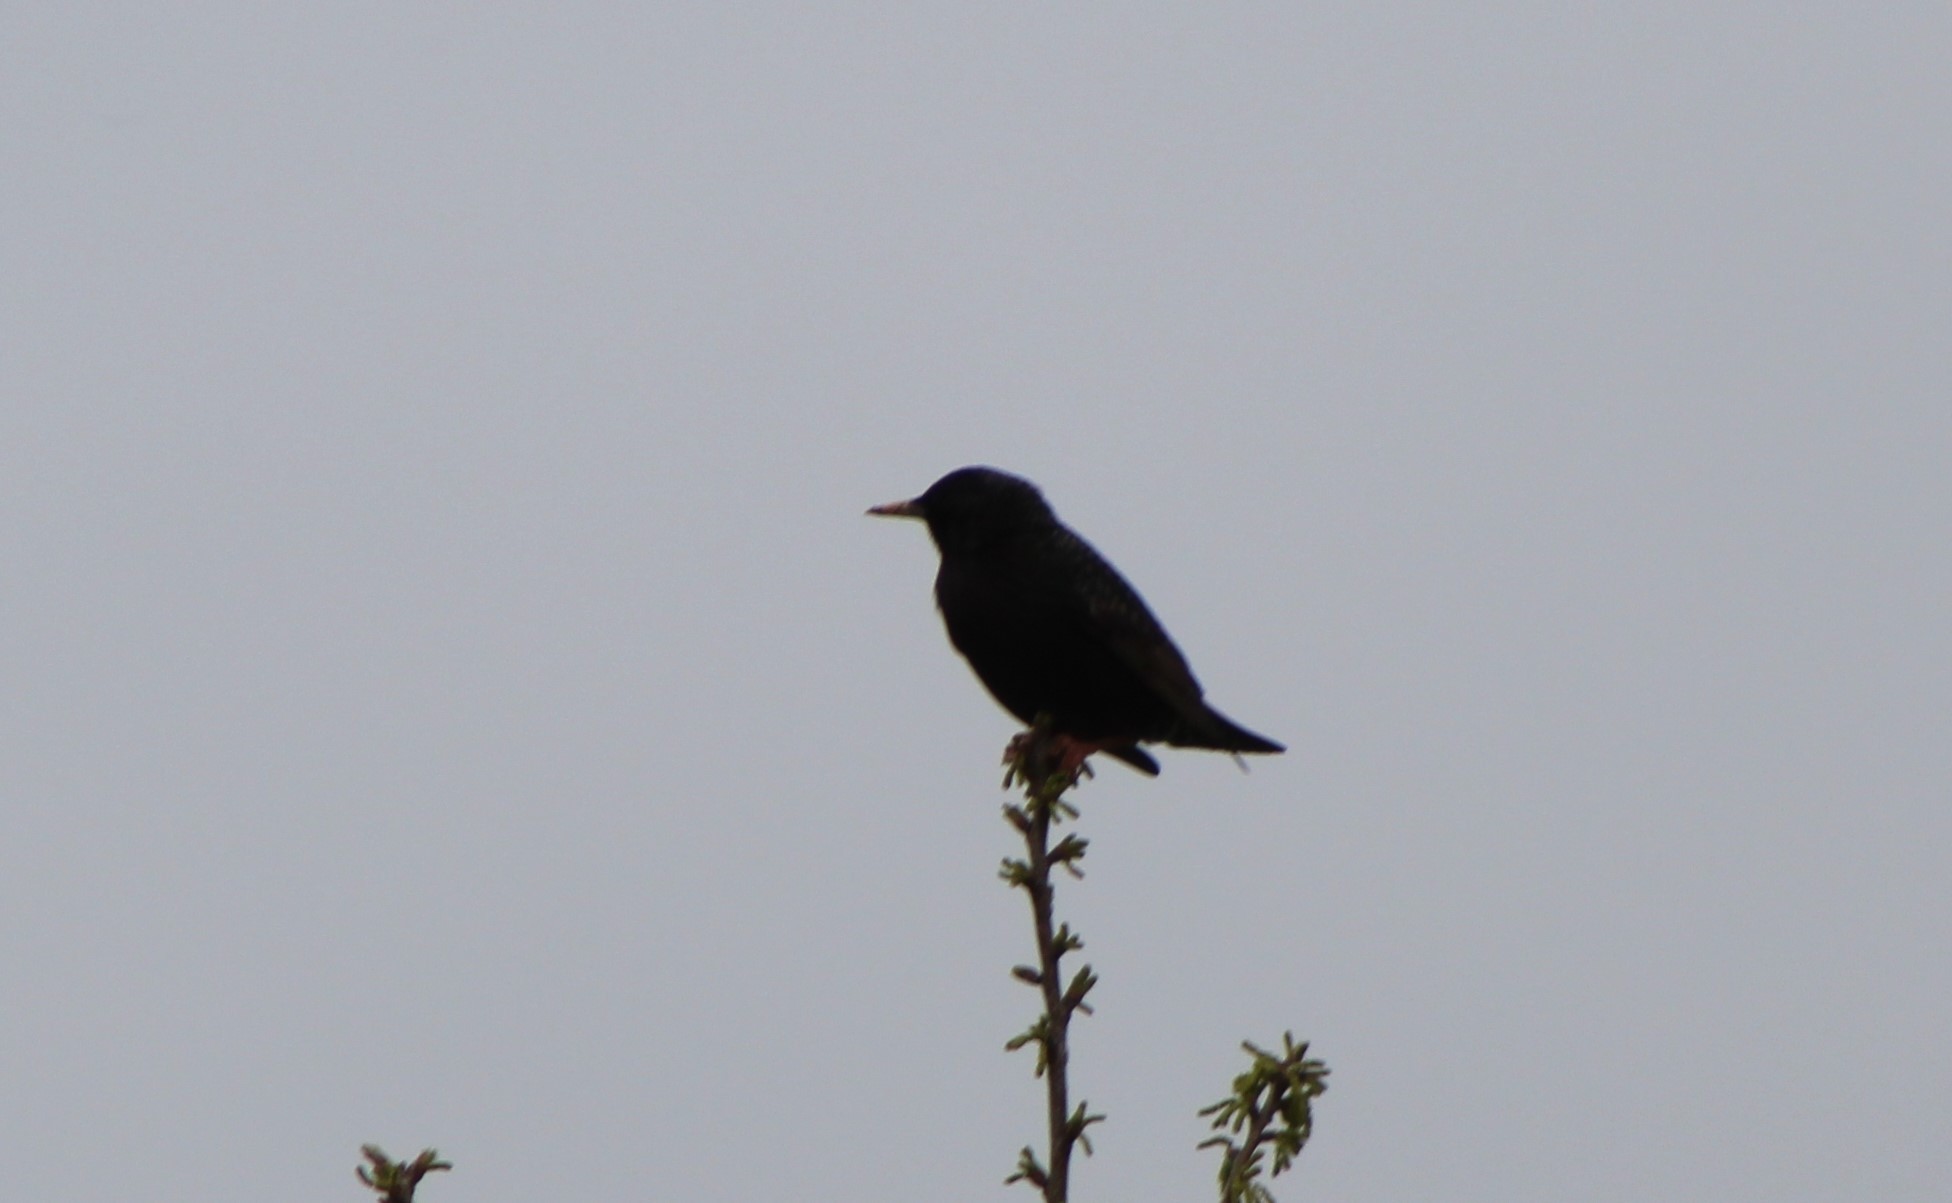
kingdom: Animalia
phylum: Chordata
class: Aves
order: Passeriformes
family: Sturnidae
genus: Sturnus
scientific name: Sturnus vulgaris
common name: Common starling
